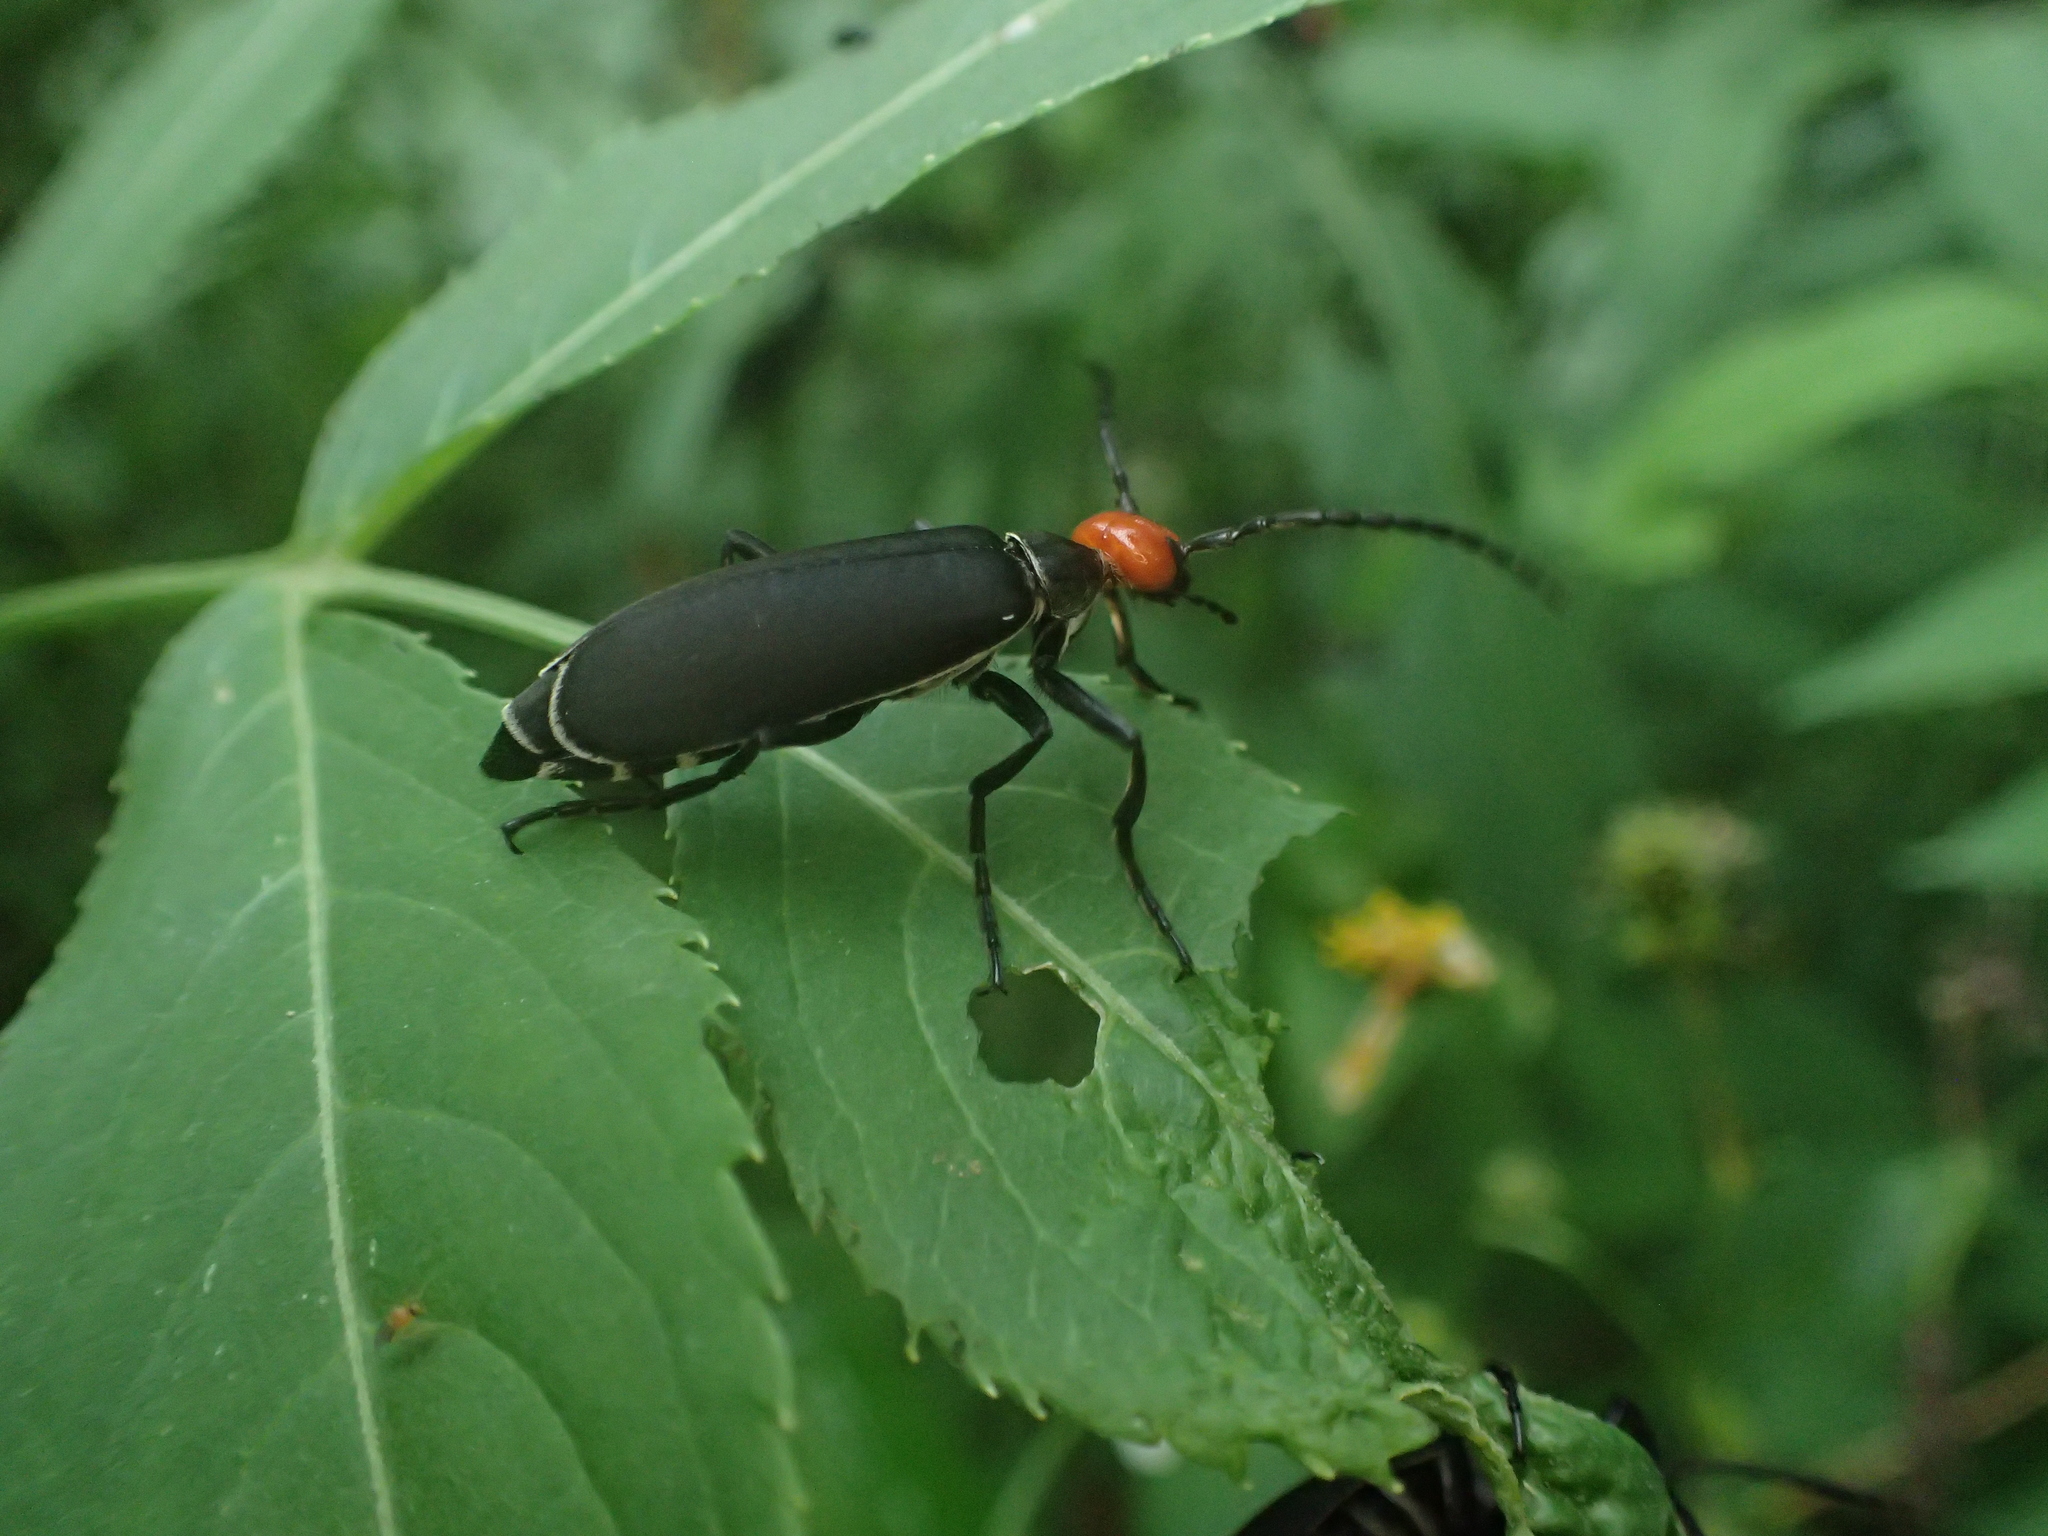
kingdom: Animalia
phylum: Arthropoda
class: Insecta
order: Coleoptera
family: Meloidae
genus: Epicauta
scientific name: Epicauta hirticornis
